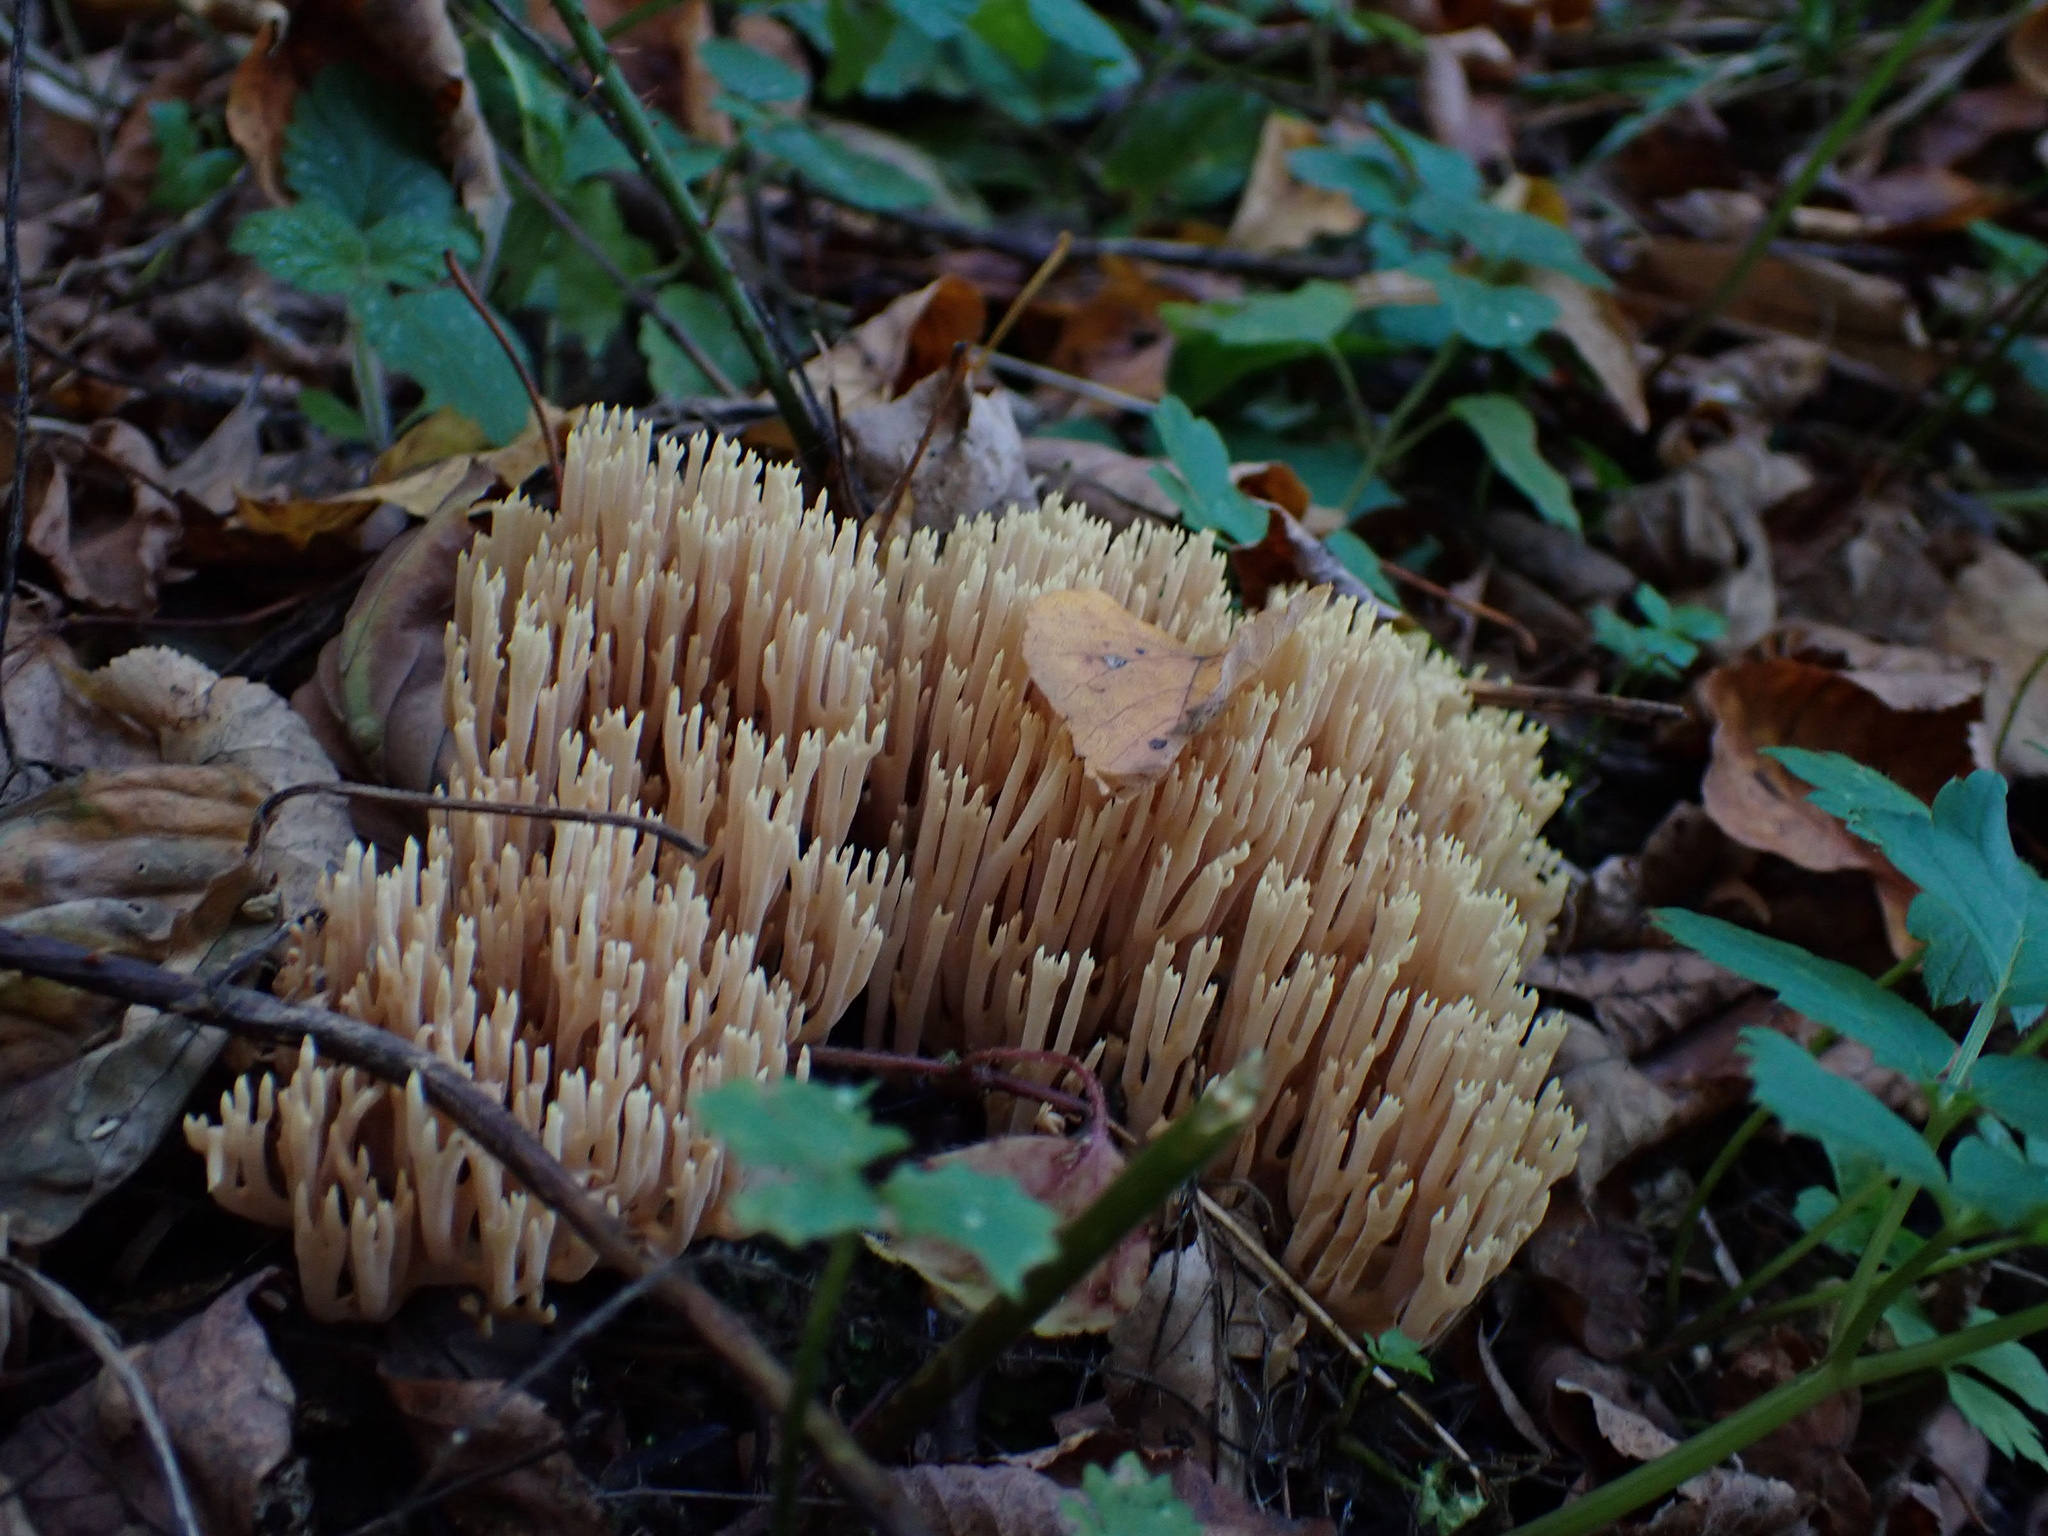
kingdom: Fungi
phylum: Basidiomycota
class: Agaricomycetes
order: Gomphales
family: Gomphaceae
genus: Ramaria
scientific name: Ramaria stricta
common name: Upright coral
